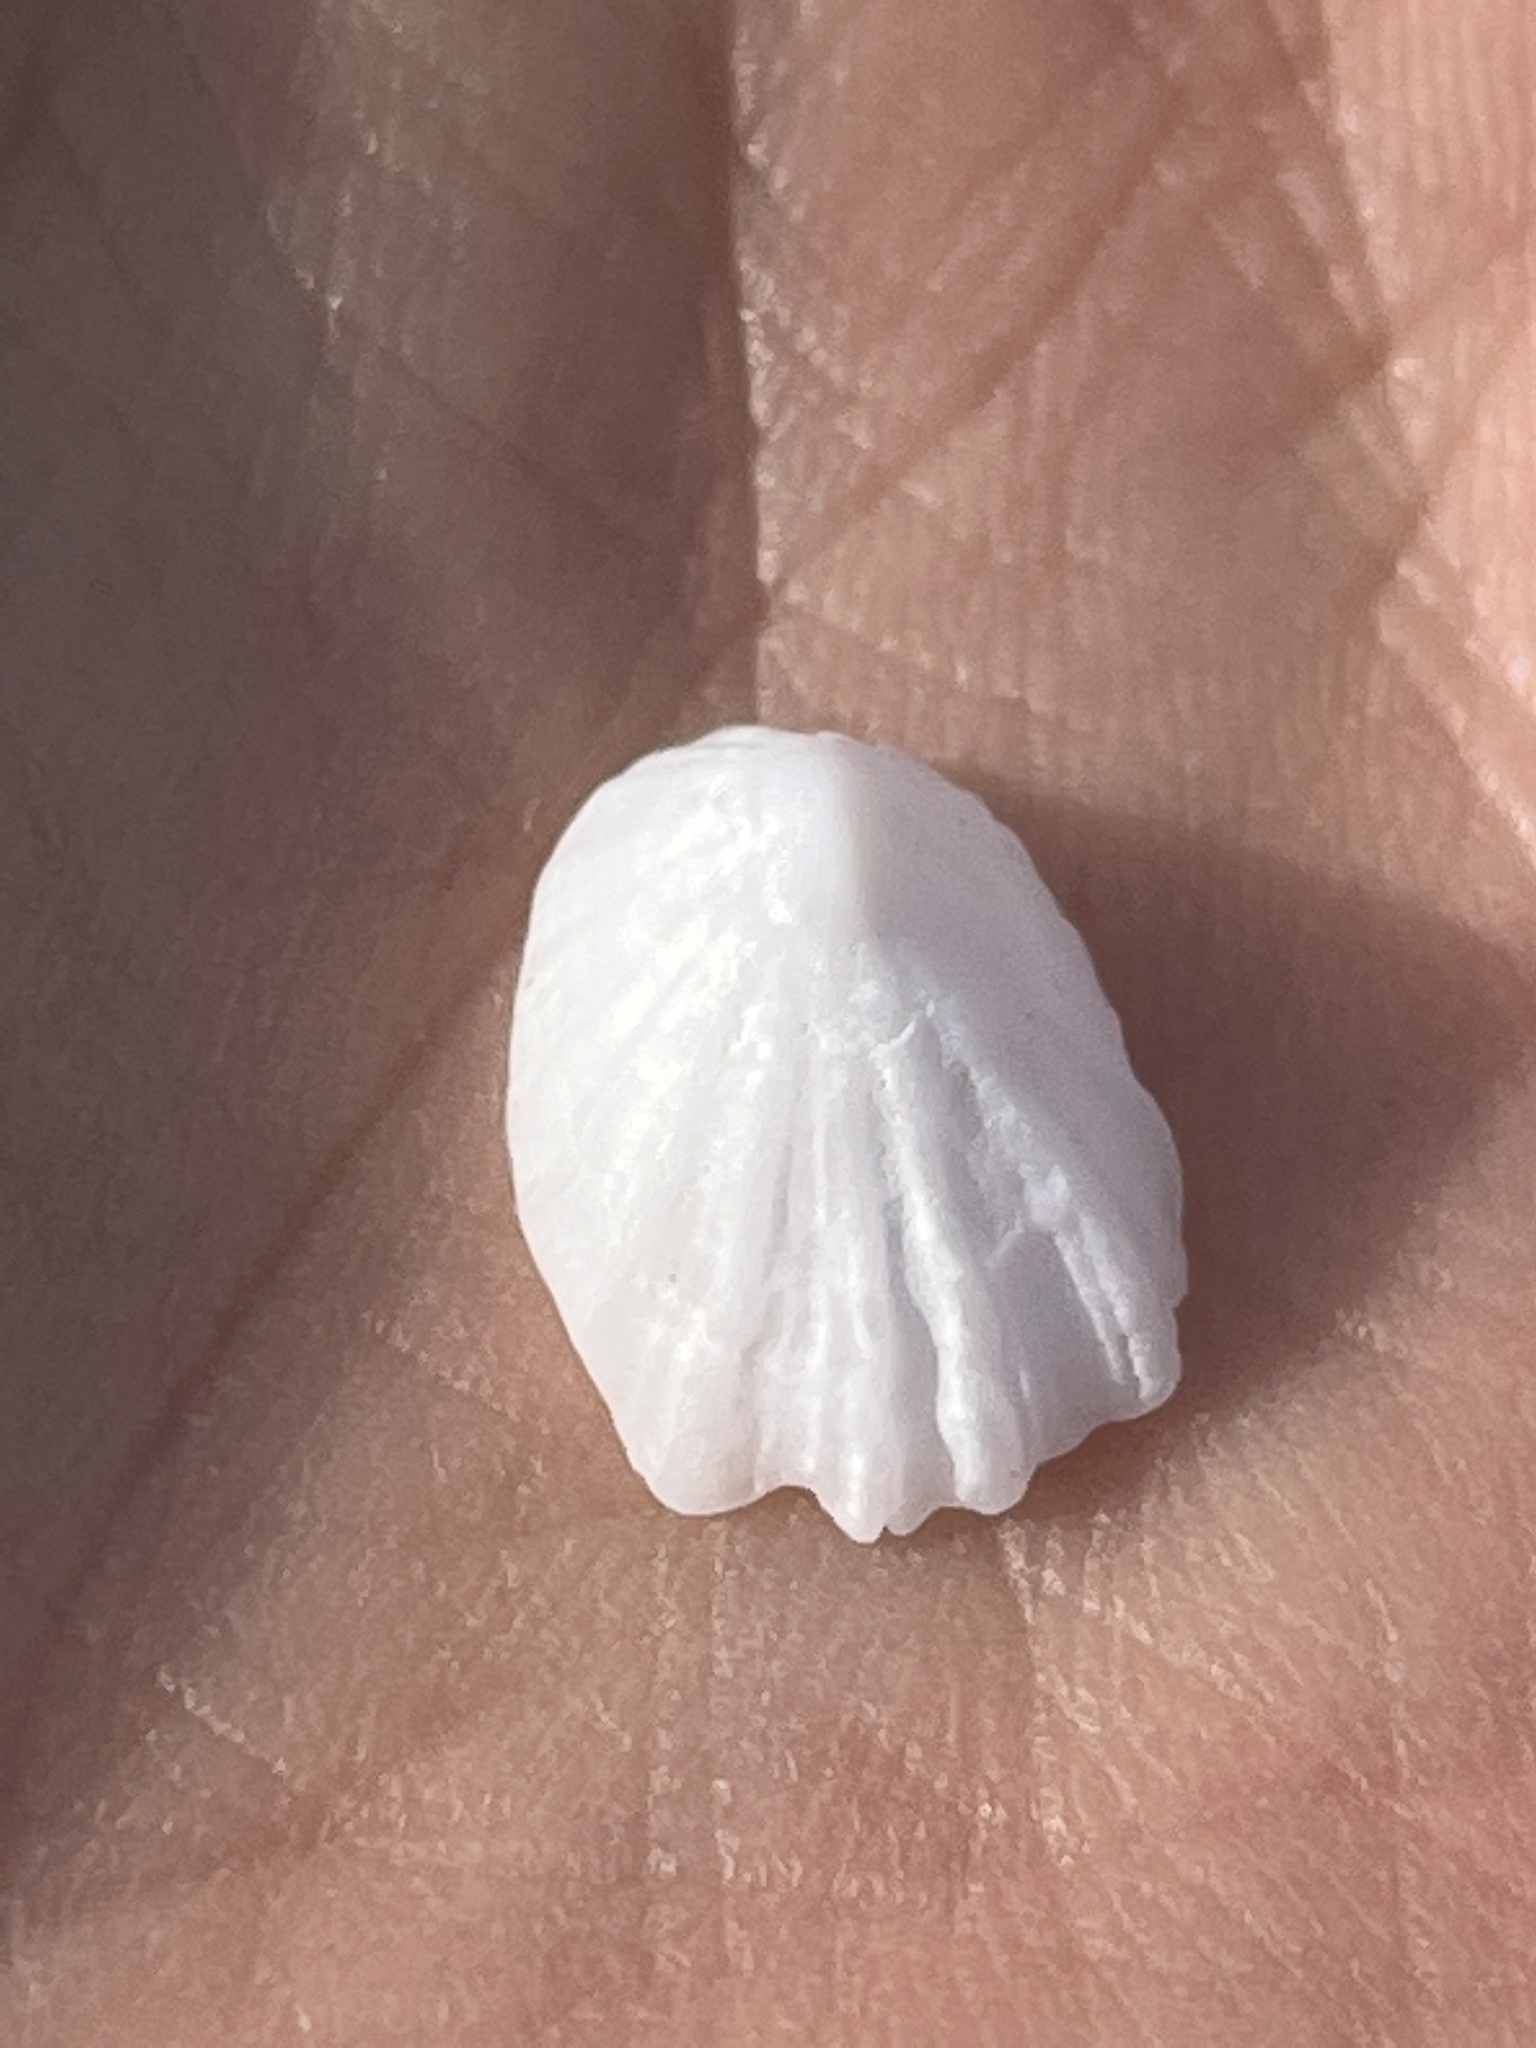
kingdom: Animalia
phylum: Mollusca
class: Gastropoda
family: Lottiidae
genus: Niveotectura
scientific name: Niveotectura pallida
